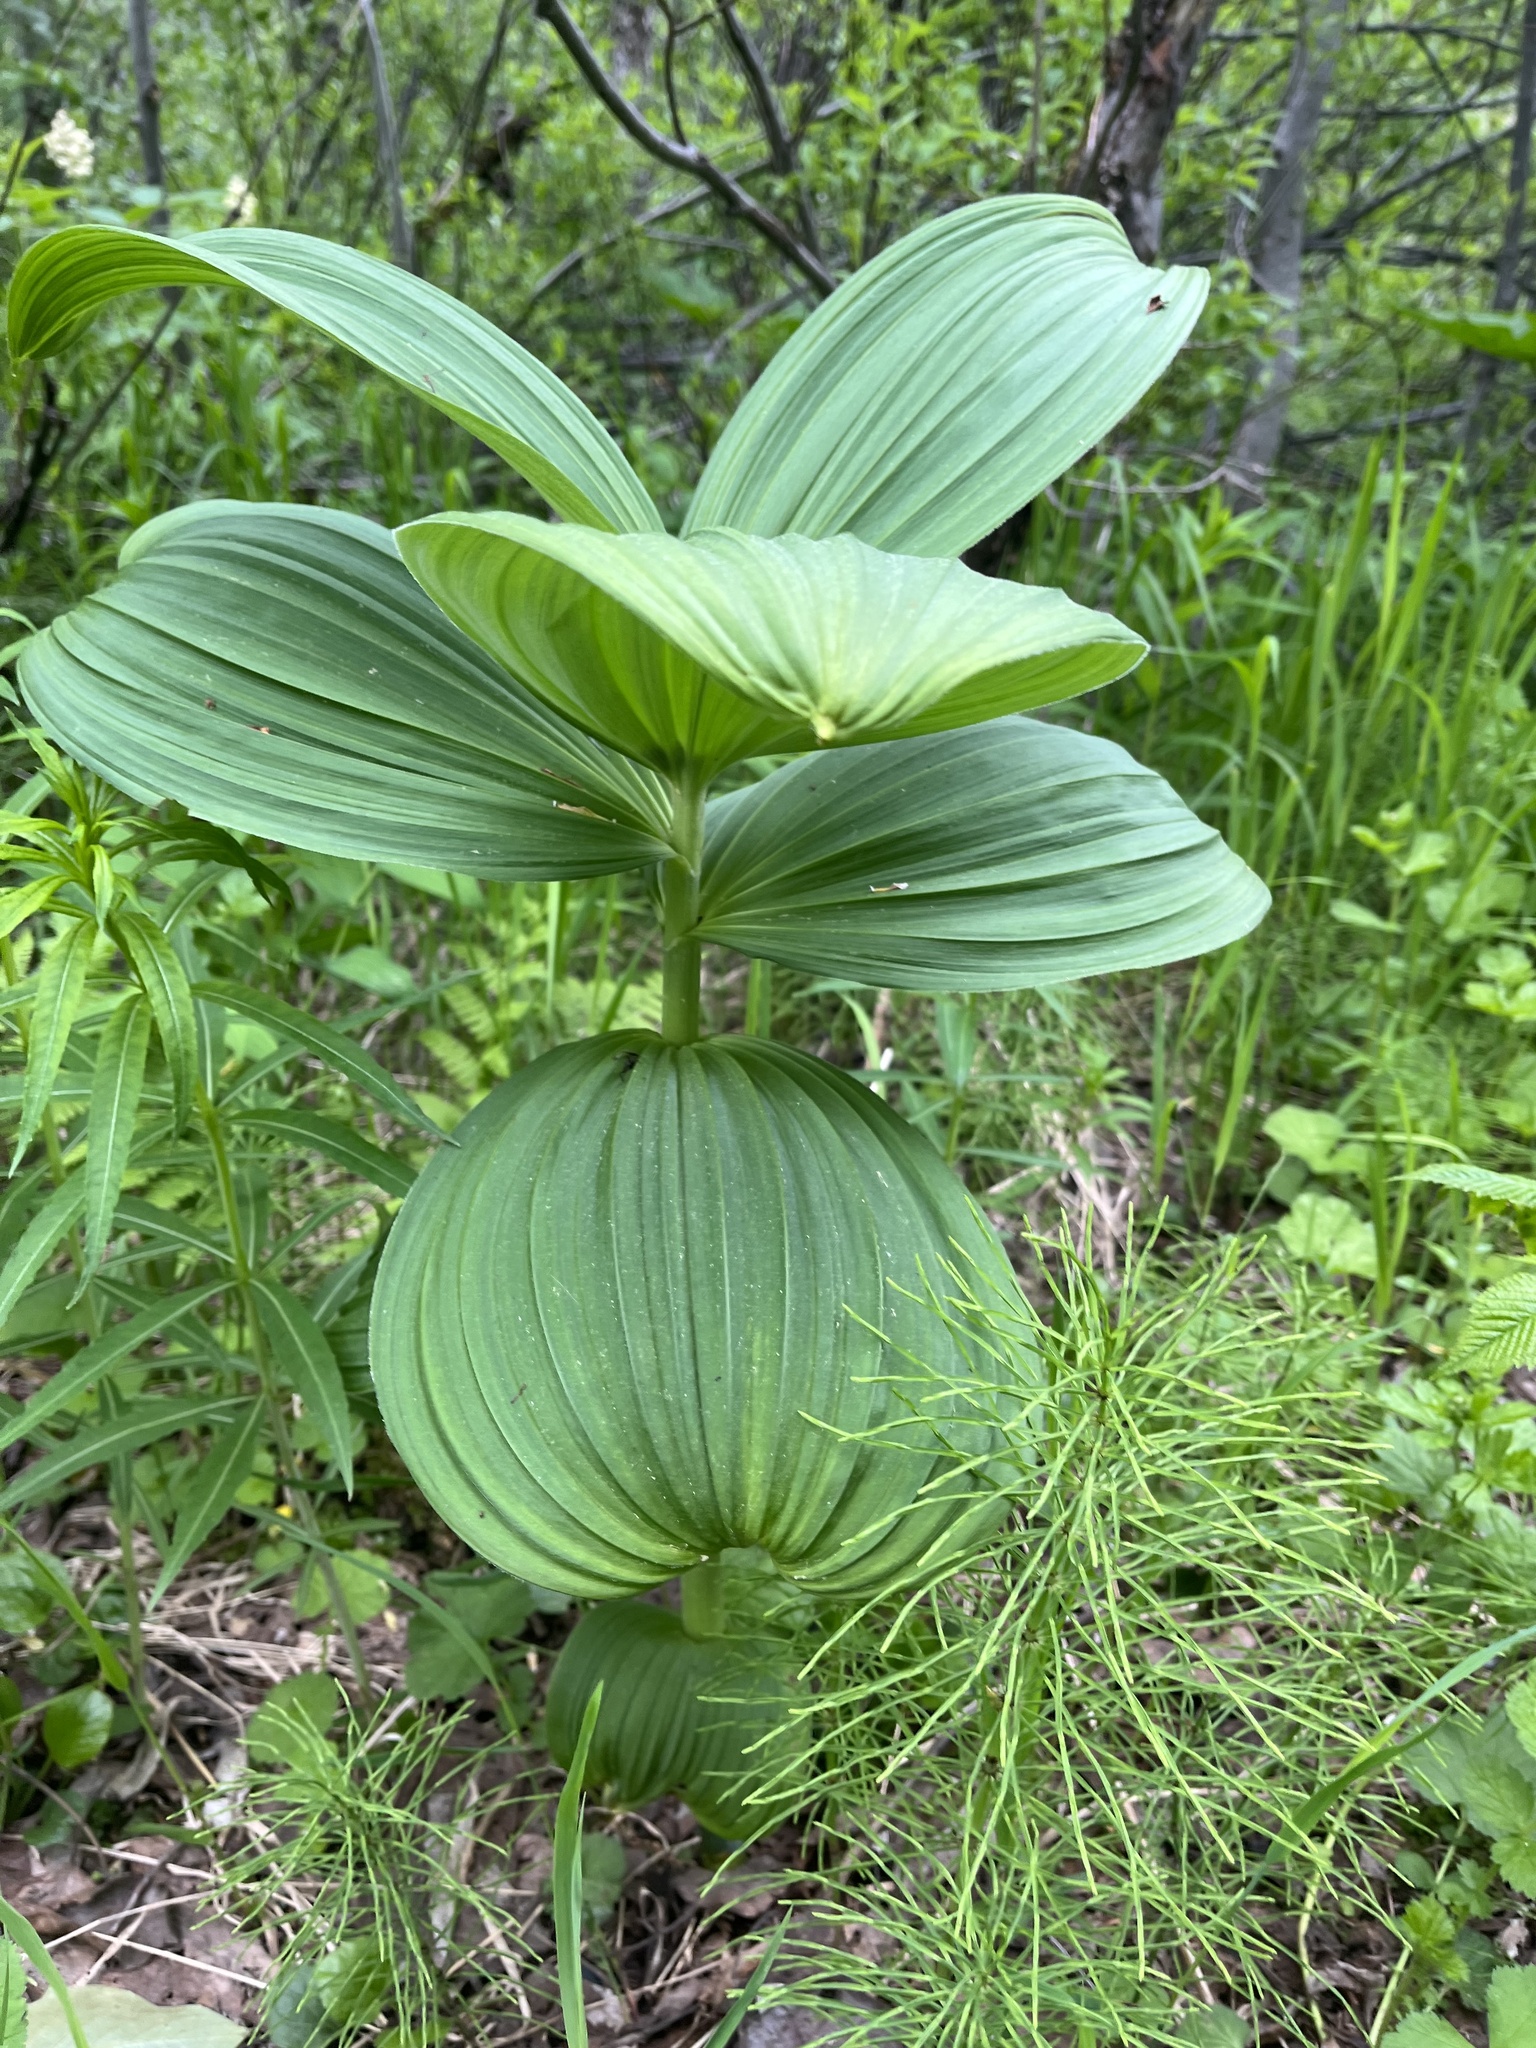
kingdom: Plantae
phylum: Tracheophyta
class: Liliopsida
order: Liliales
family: Melanthiaceae
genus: Veratrum
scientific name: Veratrum viride
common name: American false hellebore
